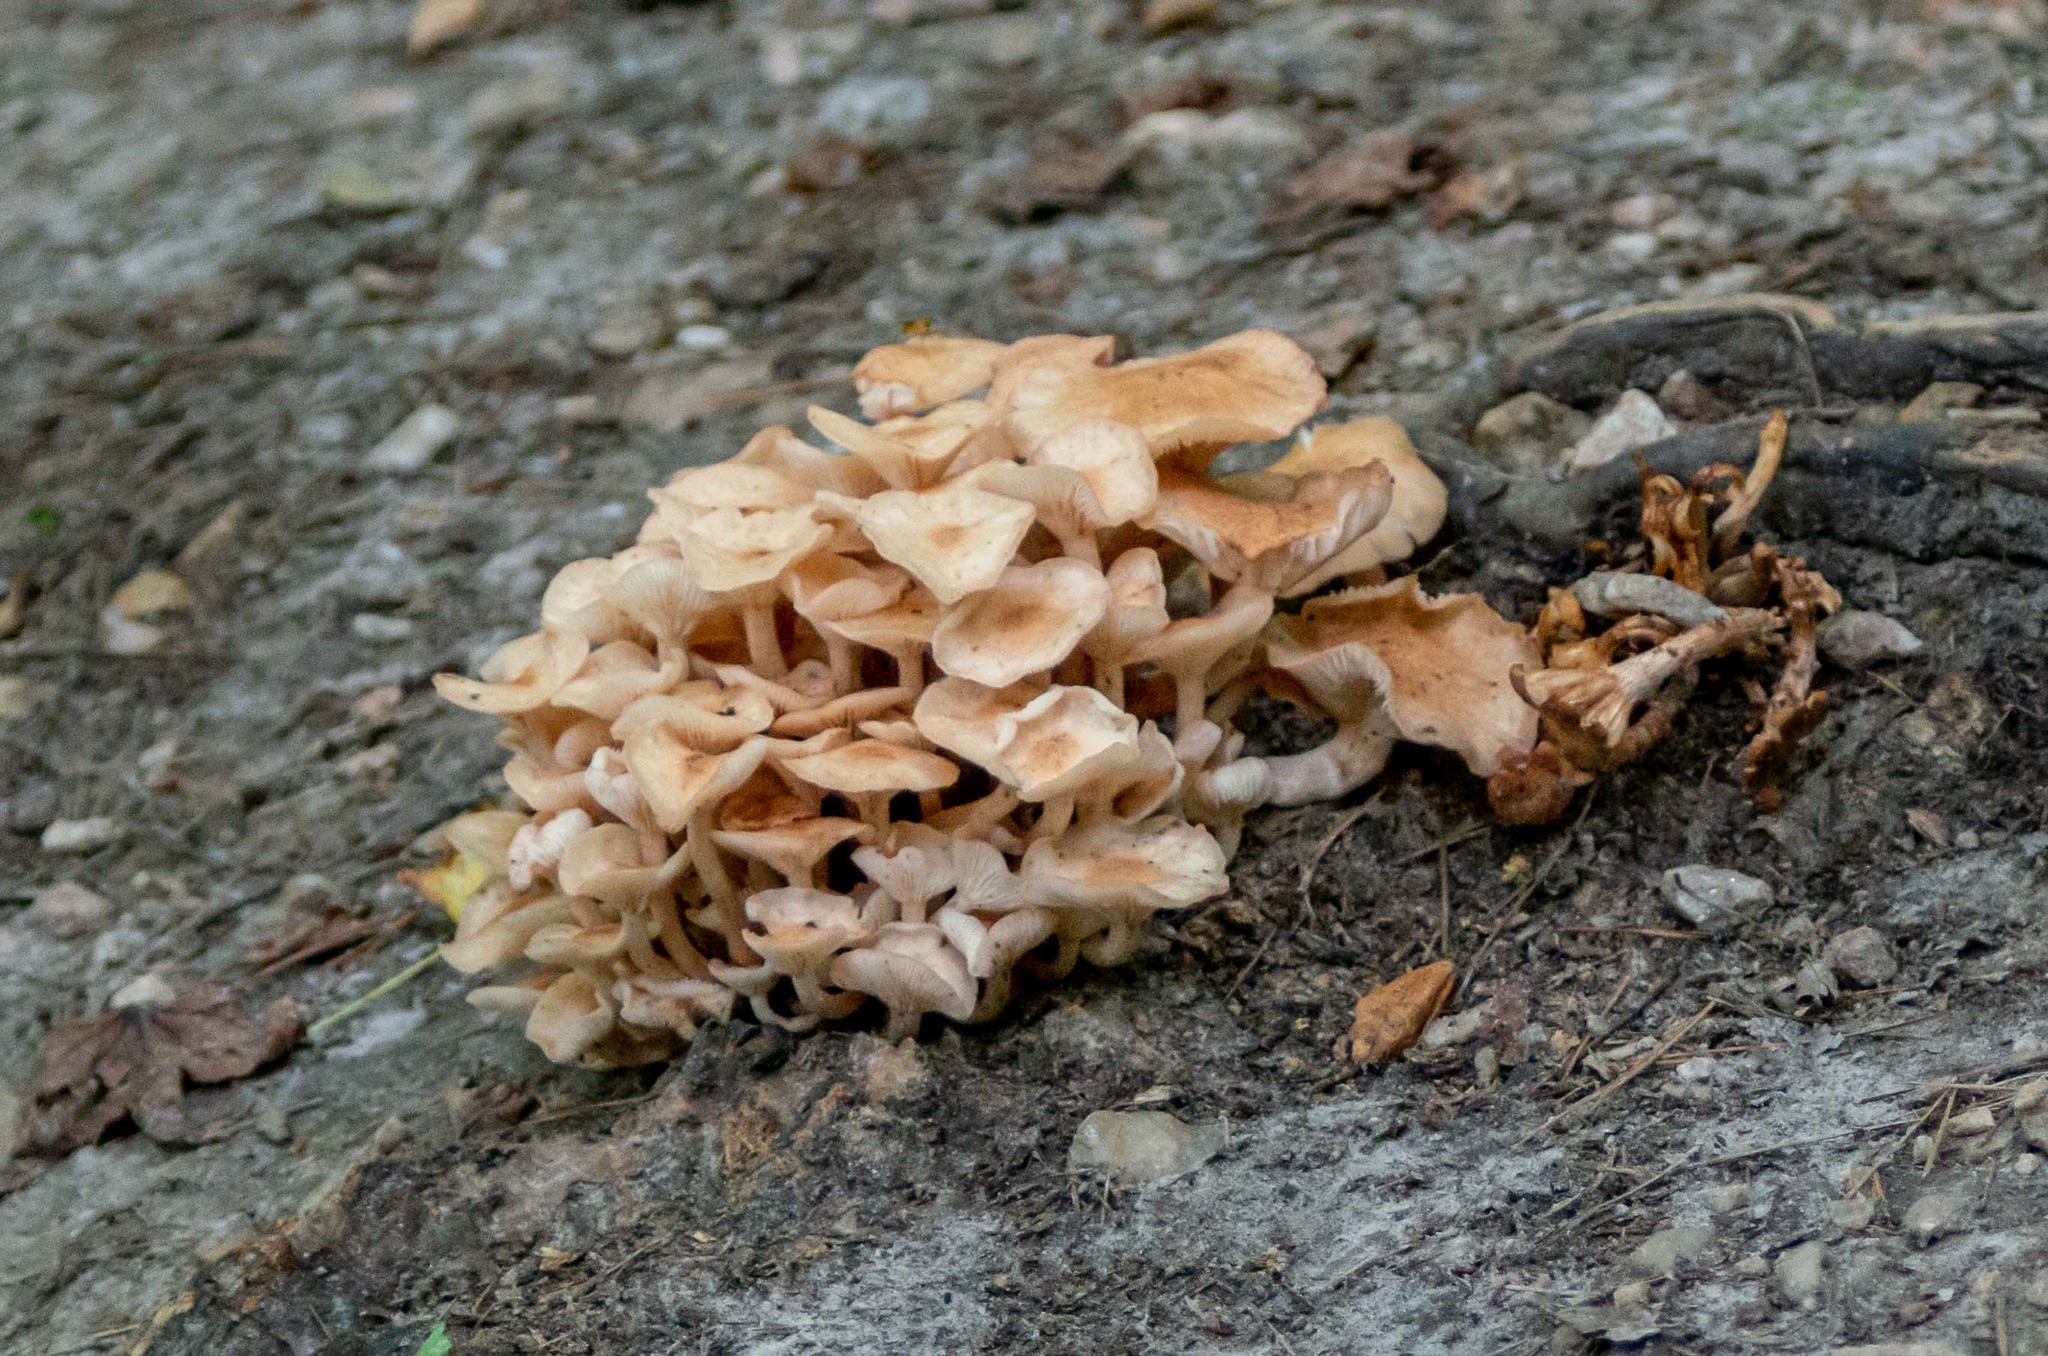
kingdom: Fungi
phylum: Basidiomycota
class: Agaricomycetes
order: Agaricales
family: Physalacriaceae
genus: Desarmillaria
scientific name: Desarmillaria caespitosa
